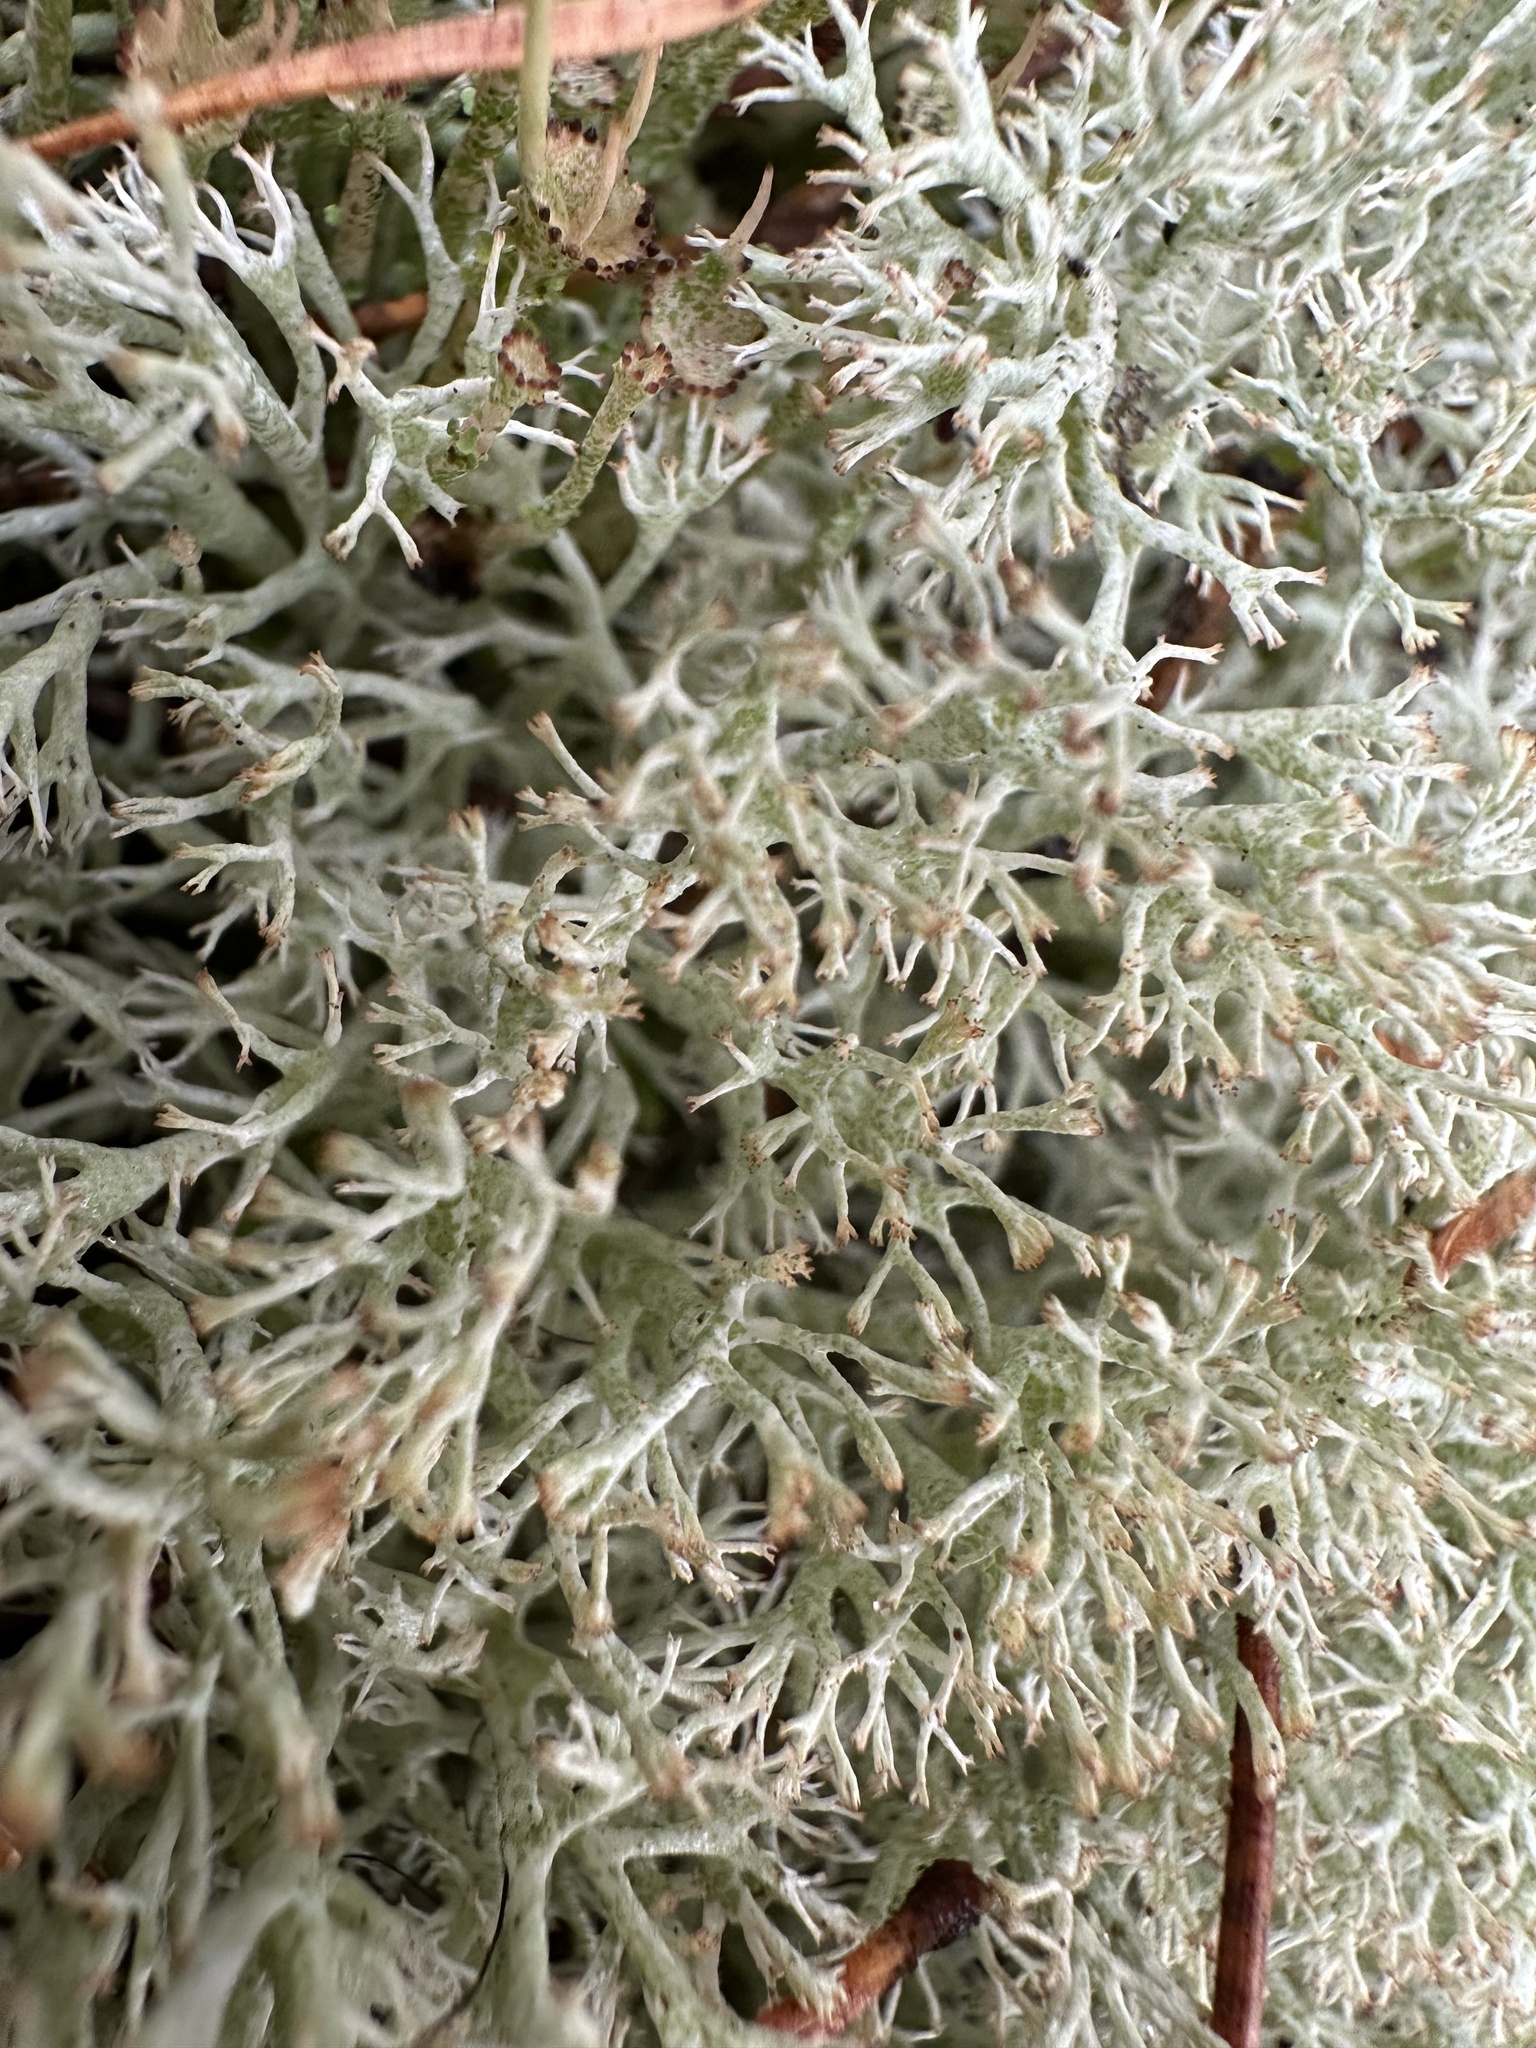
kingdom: Fungi
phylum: Ascomycota
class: Lecanoromycetes
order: Lecanorales
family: Cladoniaceae
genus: Cladonia
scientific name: Cladonia arbuscula
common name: Reindeer lichen
